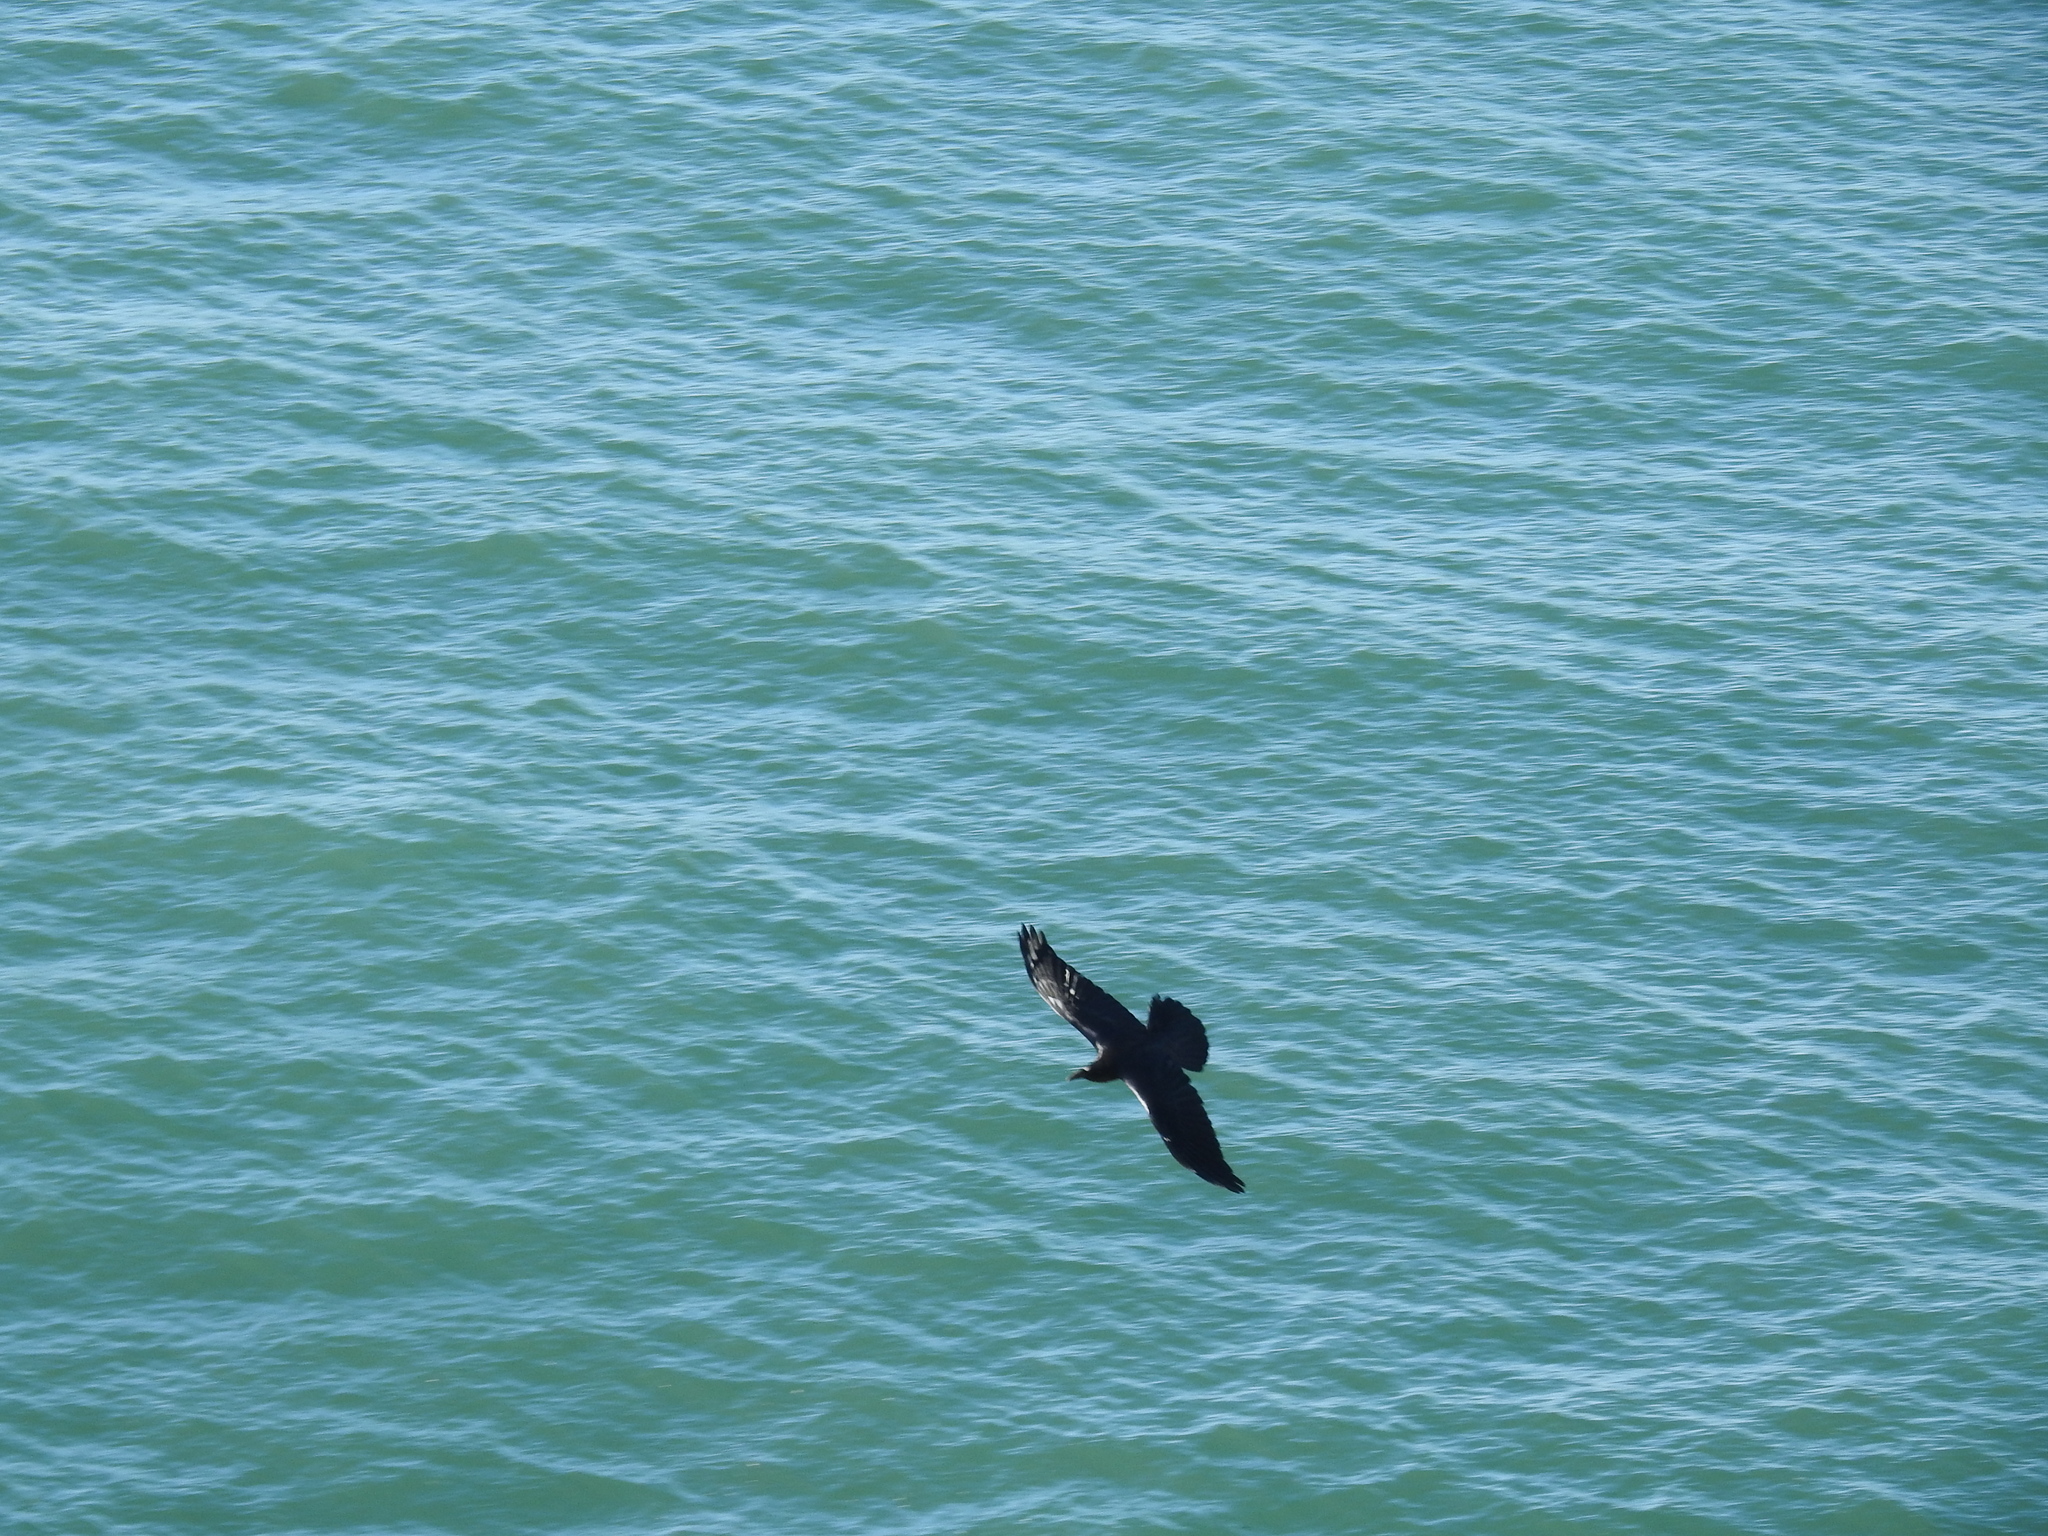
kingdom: Animalia
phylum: Chordata
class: Aves
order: Passeriformes
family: Corvidae
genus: Corvus
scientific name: Corvus corax
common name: Common raven
